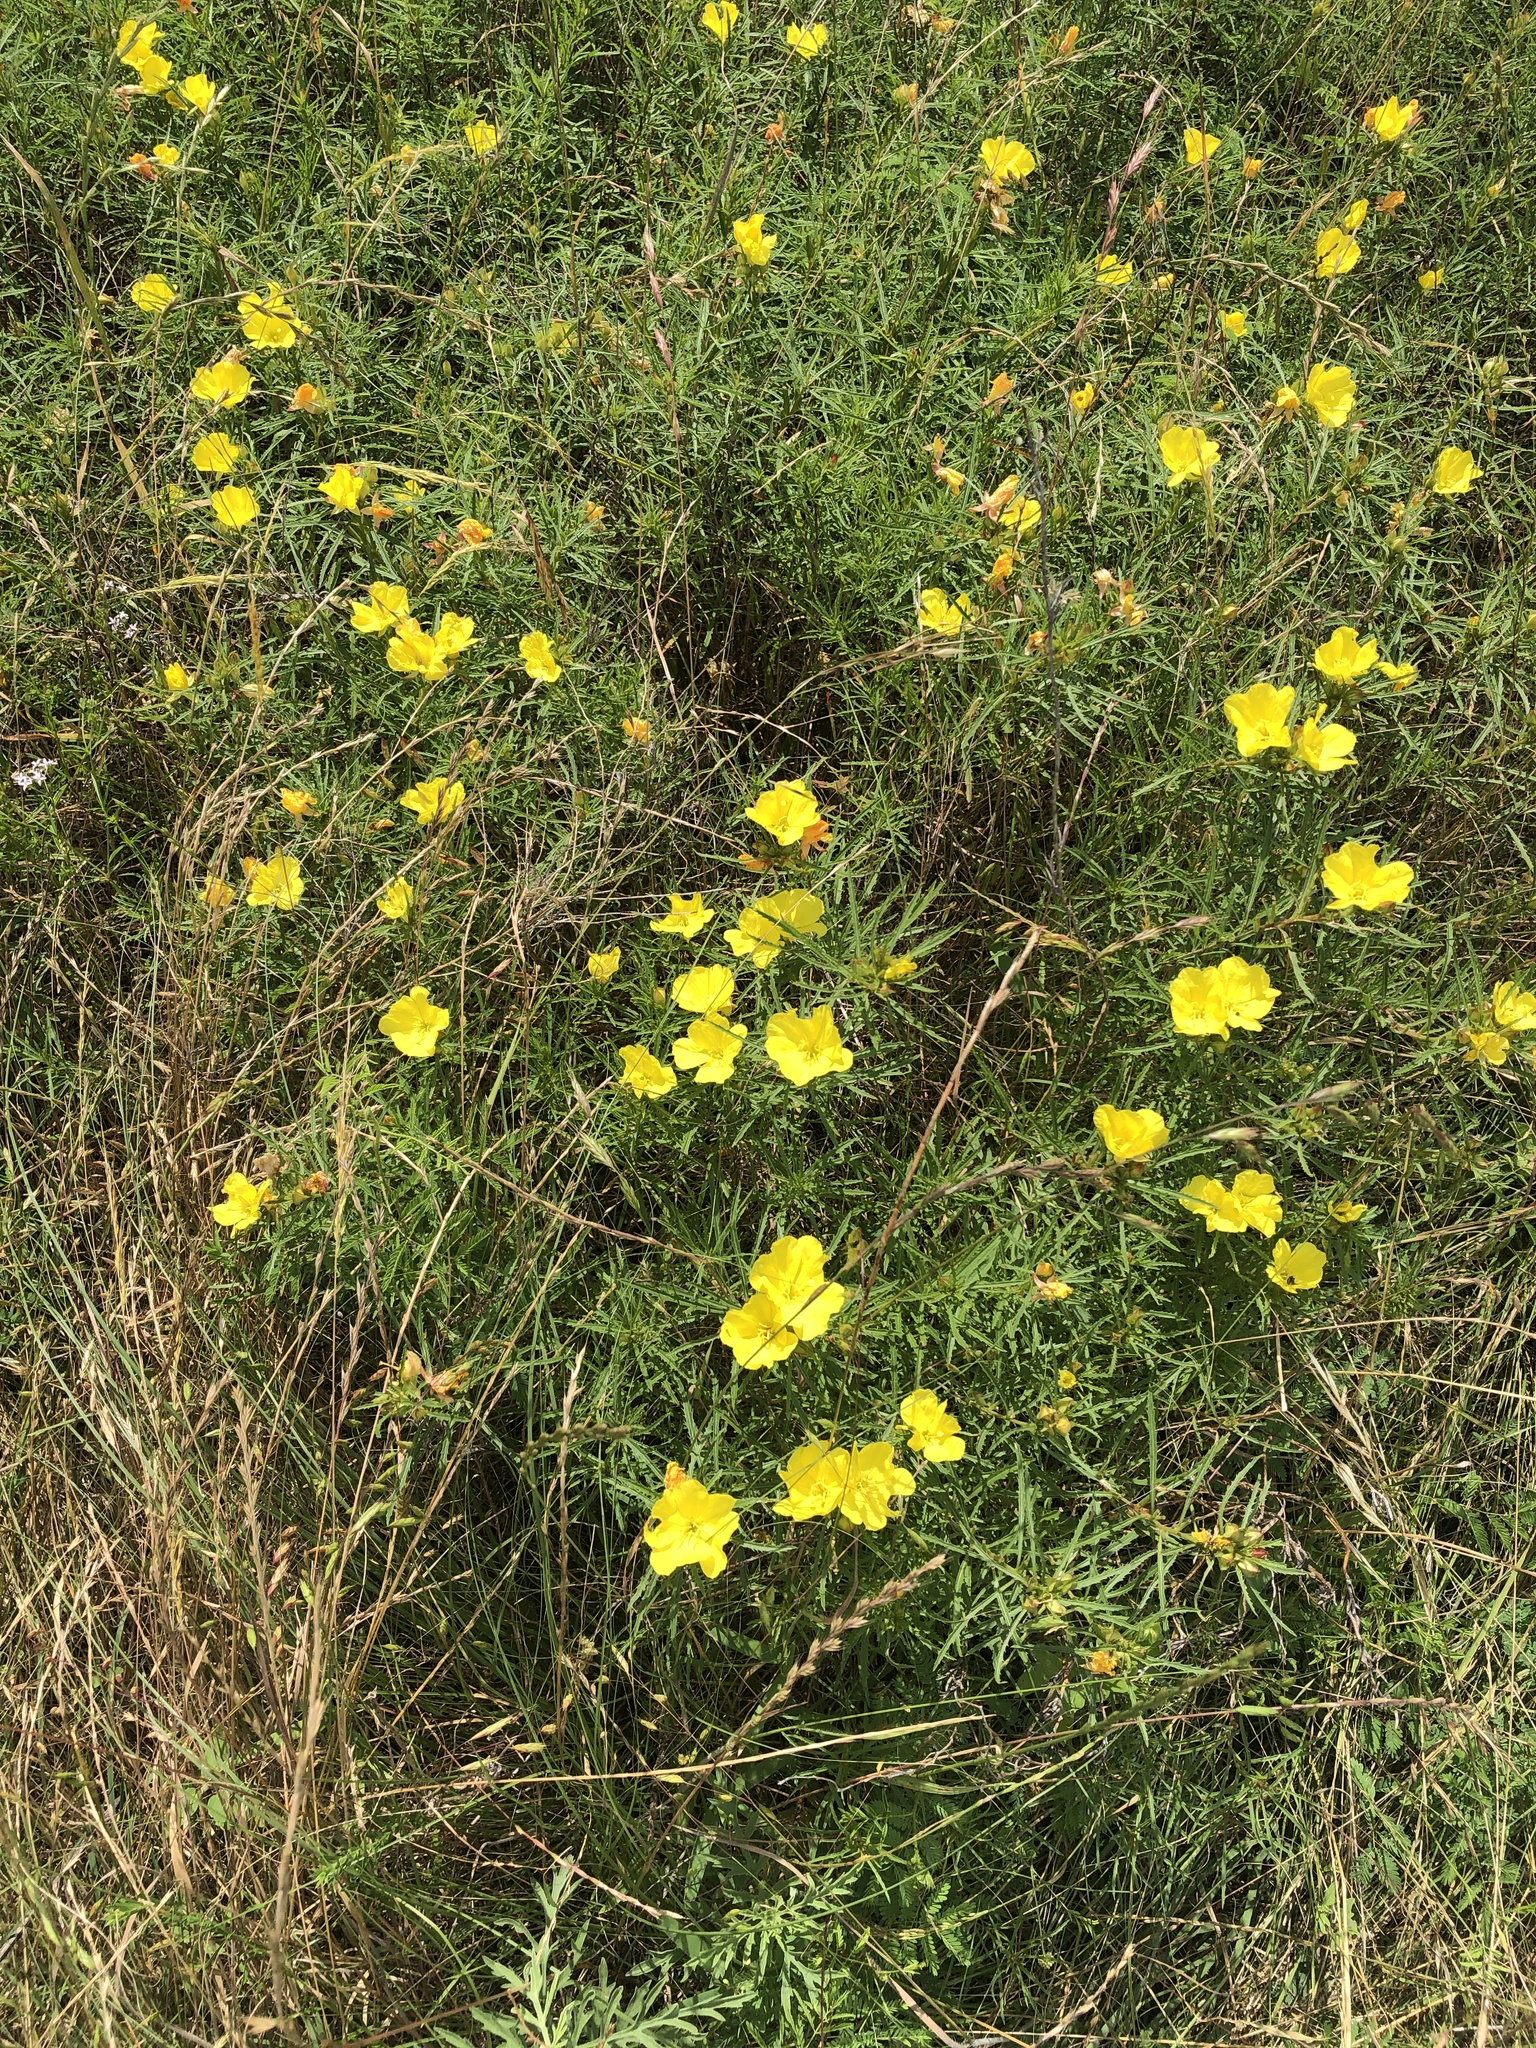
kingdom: Plantae
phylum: Tracheophyta
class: Magnoliopsida
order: Myrtales
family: Onagraceae
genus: Oenothera
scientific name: Oenothera
